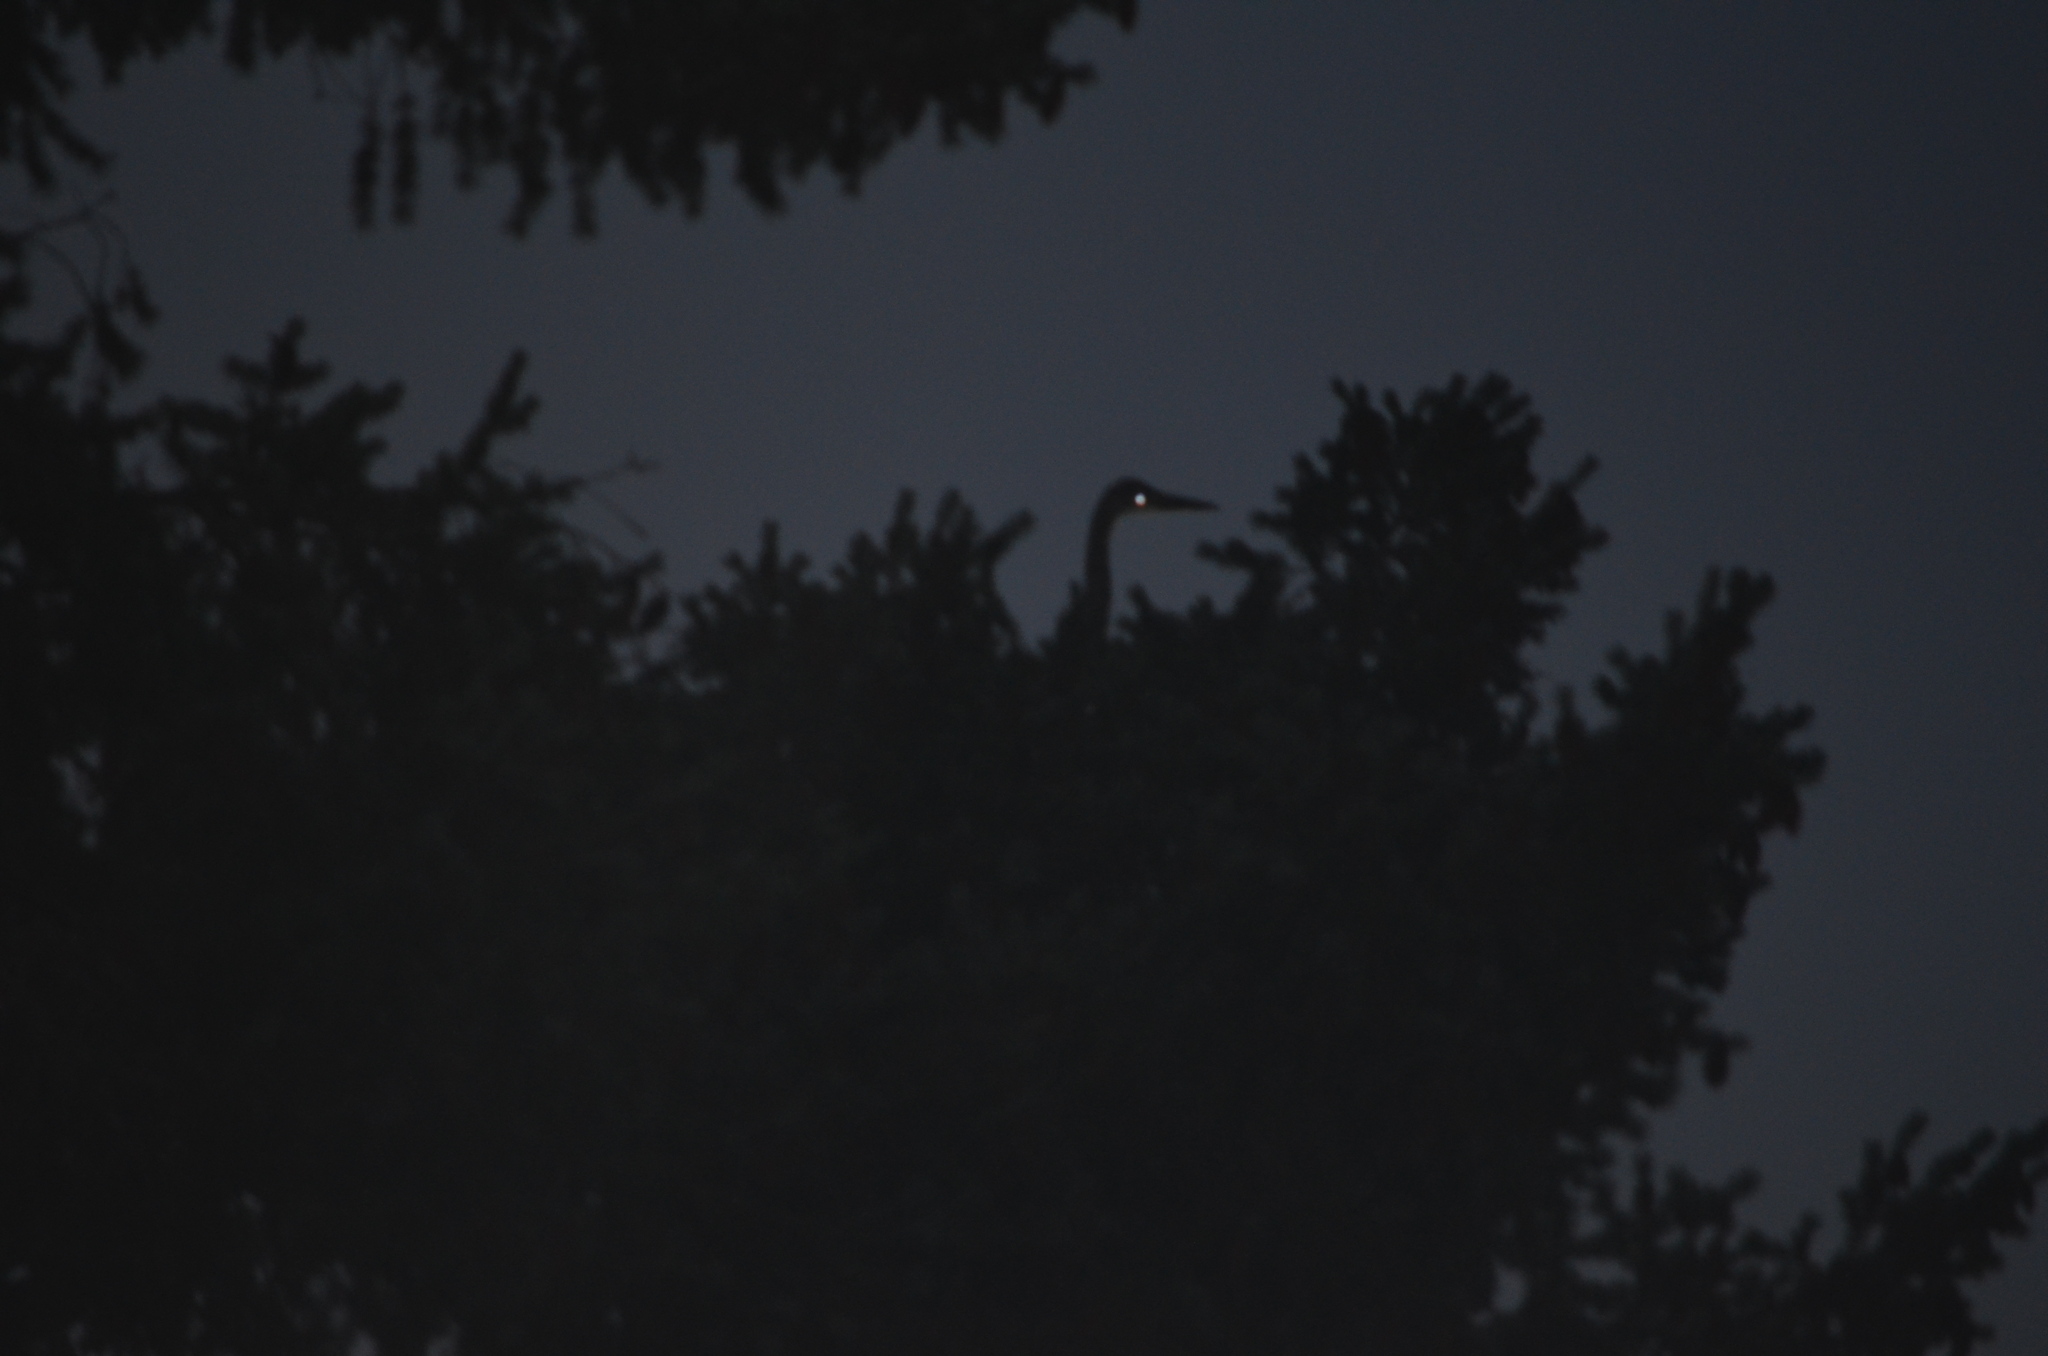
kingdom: Animalia
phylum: Chordata
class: Aves
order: Pelecaniformes
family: Ardeidae
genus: Ardea
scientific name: Ardea herodias
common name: Great blue heron
